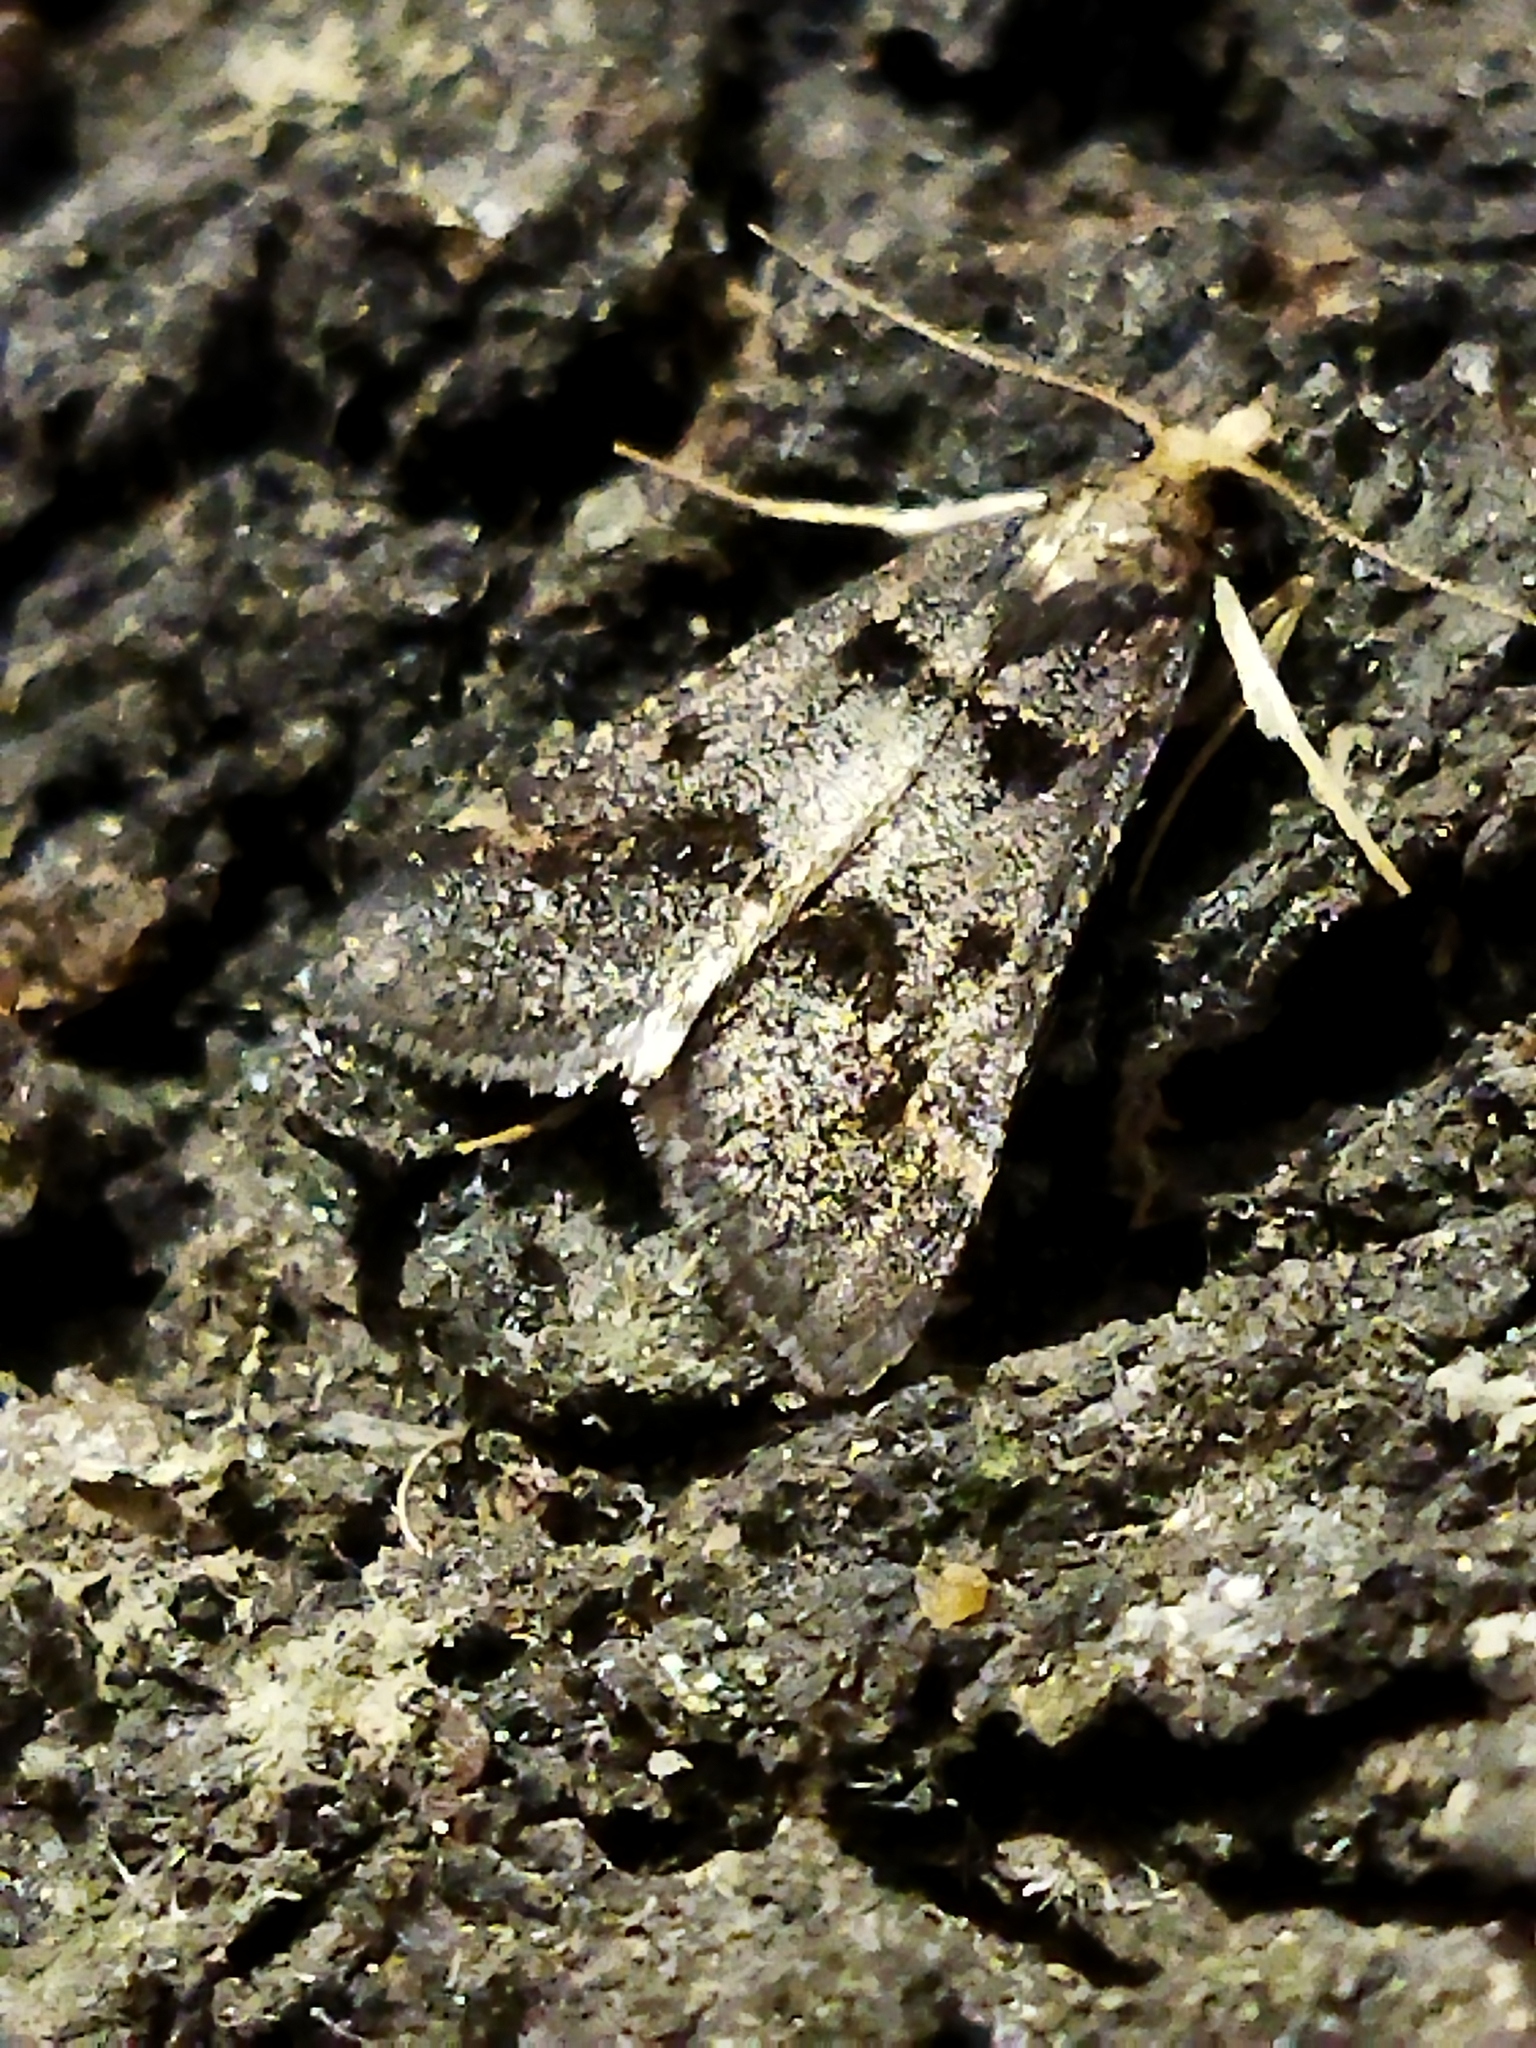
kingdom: Animalia
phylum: Arthropoda
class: Insecta
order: Lepidoptera
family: Pyralidae
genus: Stemmatophora
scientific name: Stemmatophora brunnealis
